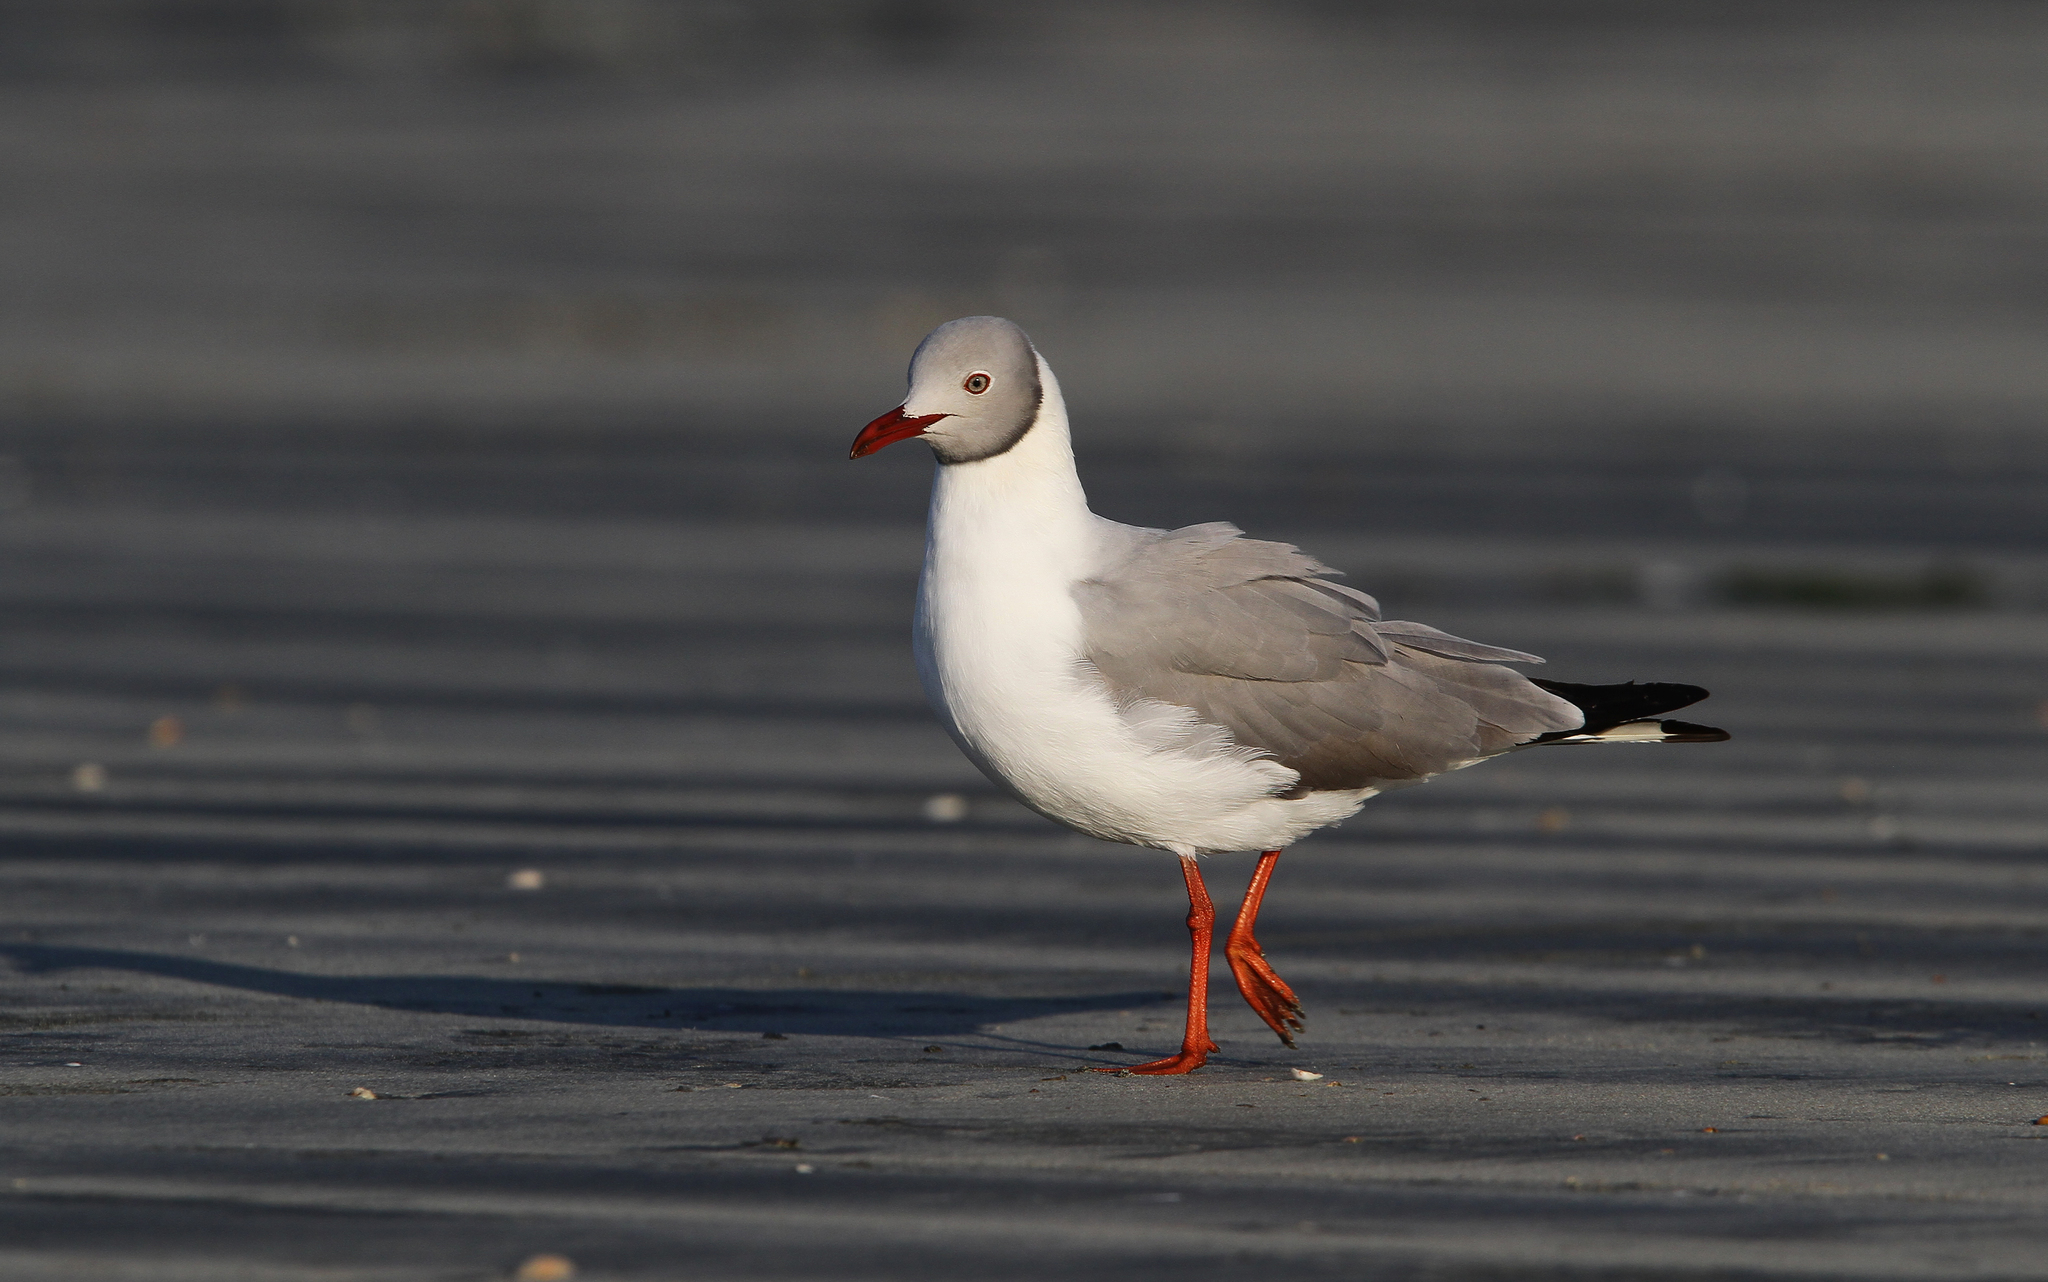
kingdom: Animalia
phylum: Chordata
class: Aves
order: Charadriiformes
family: Laridae
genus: Chroicocephalus
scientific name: Chroicocephalus cirrocephalus
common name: Grey-headed gull
